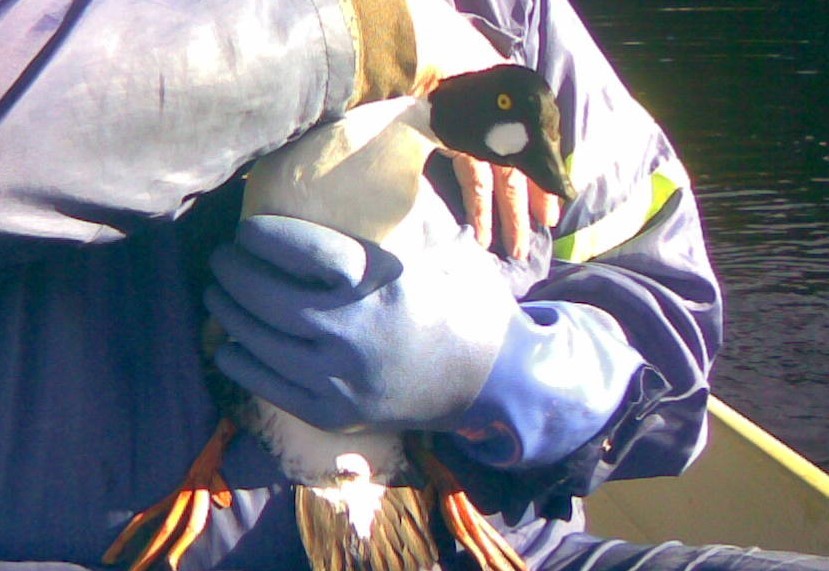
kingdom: Animalia
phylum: Chordata
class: Aves
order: Anseriformes
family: Anatidae
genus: Bucephala
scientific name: Bucephala clangula
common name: Common goldeneye
